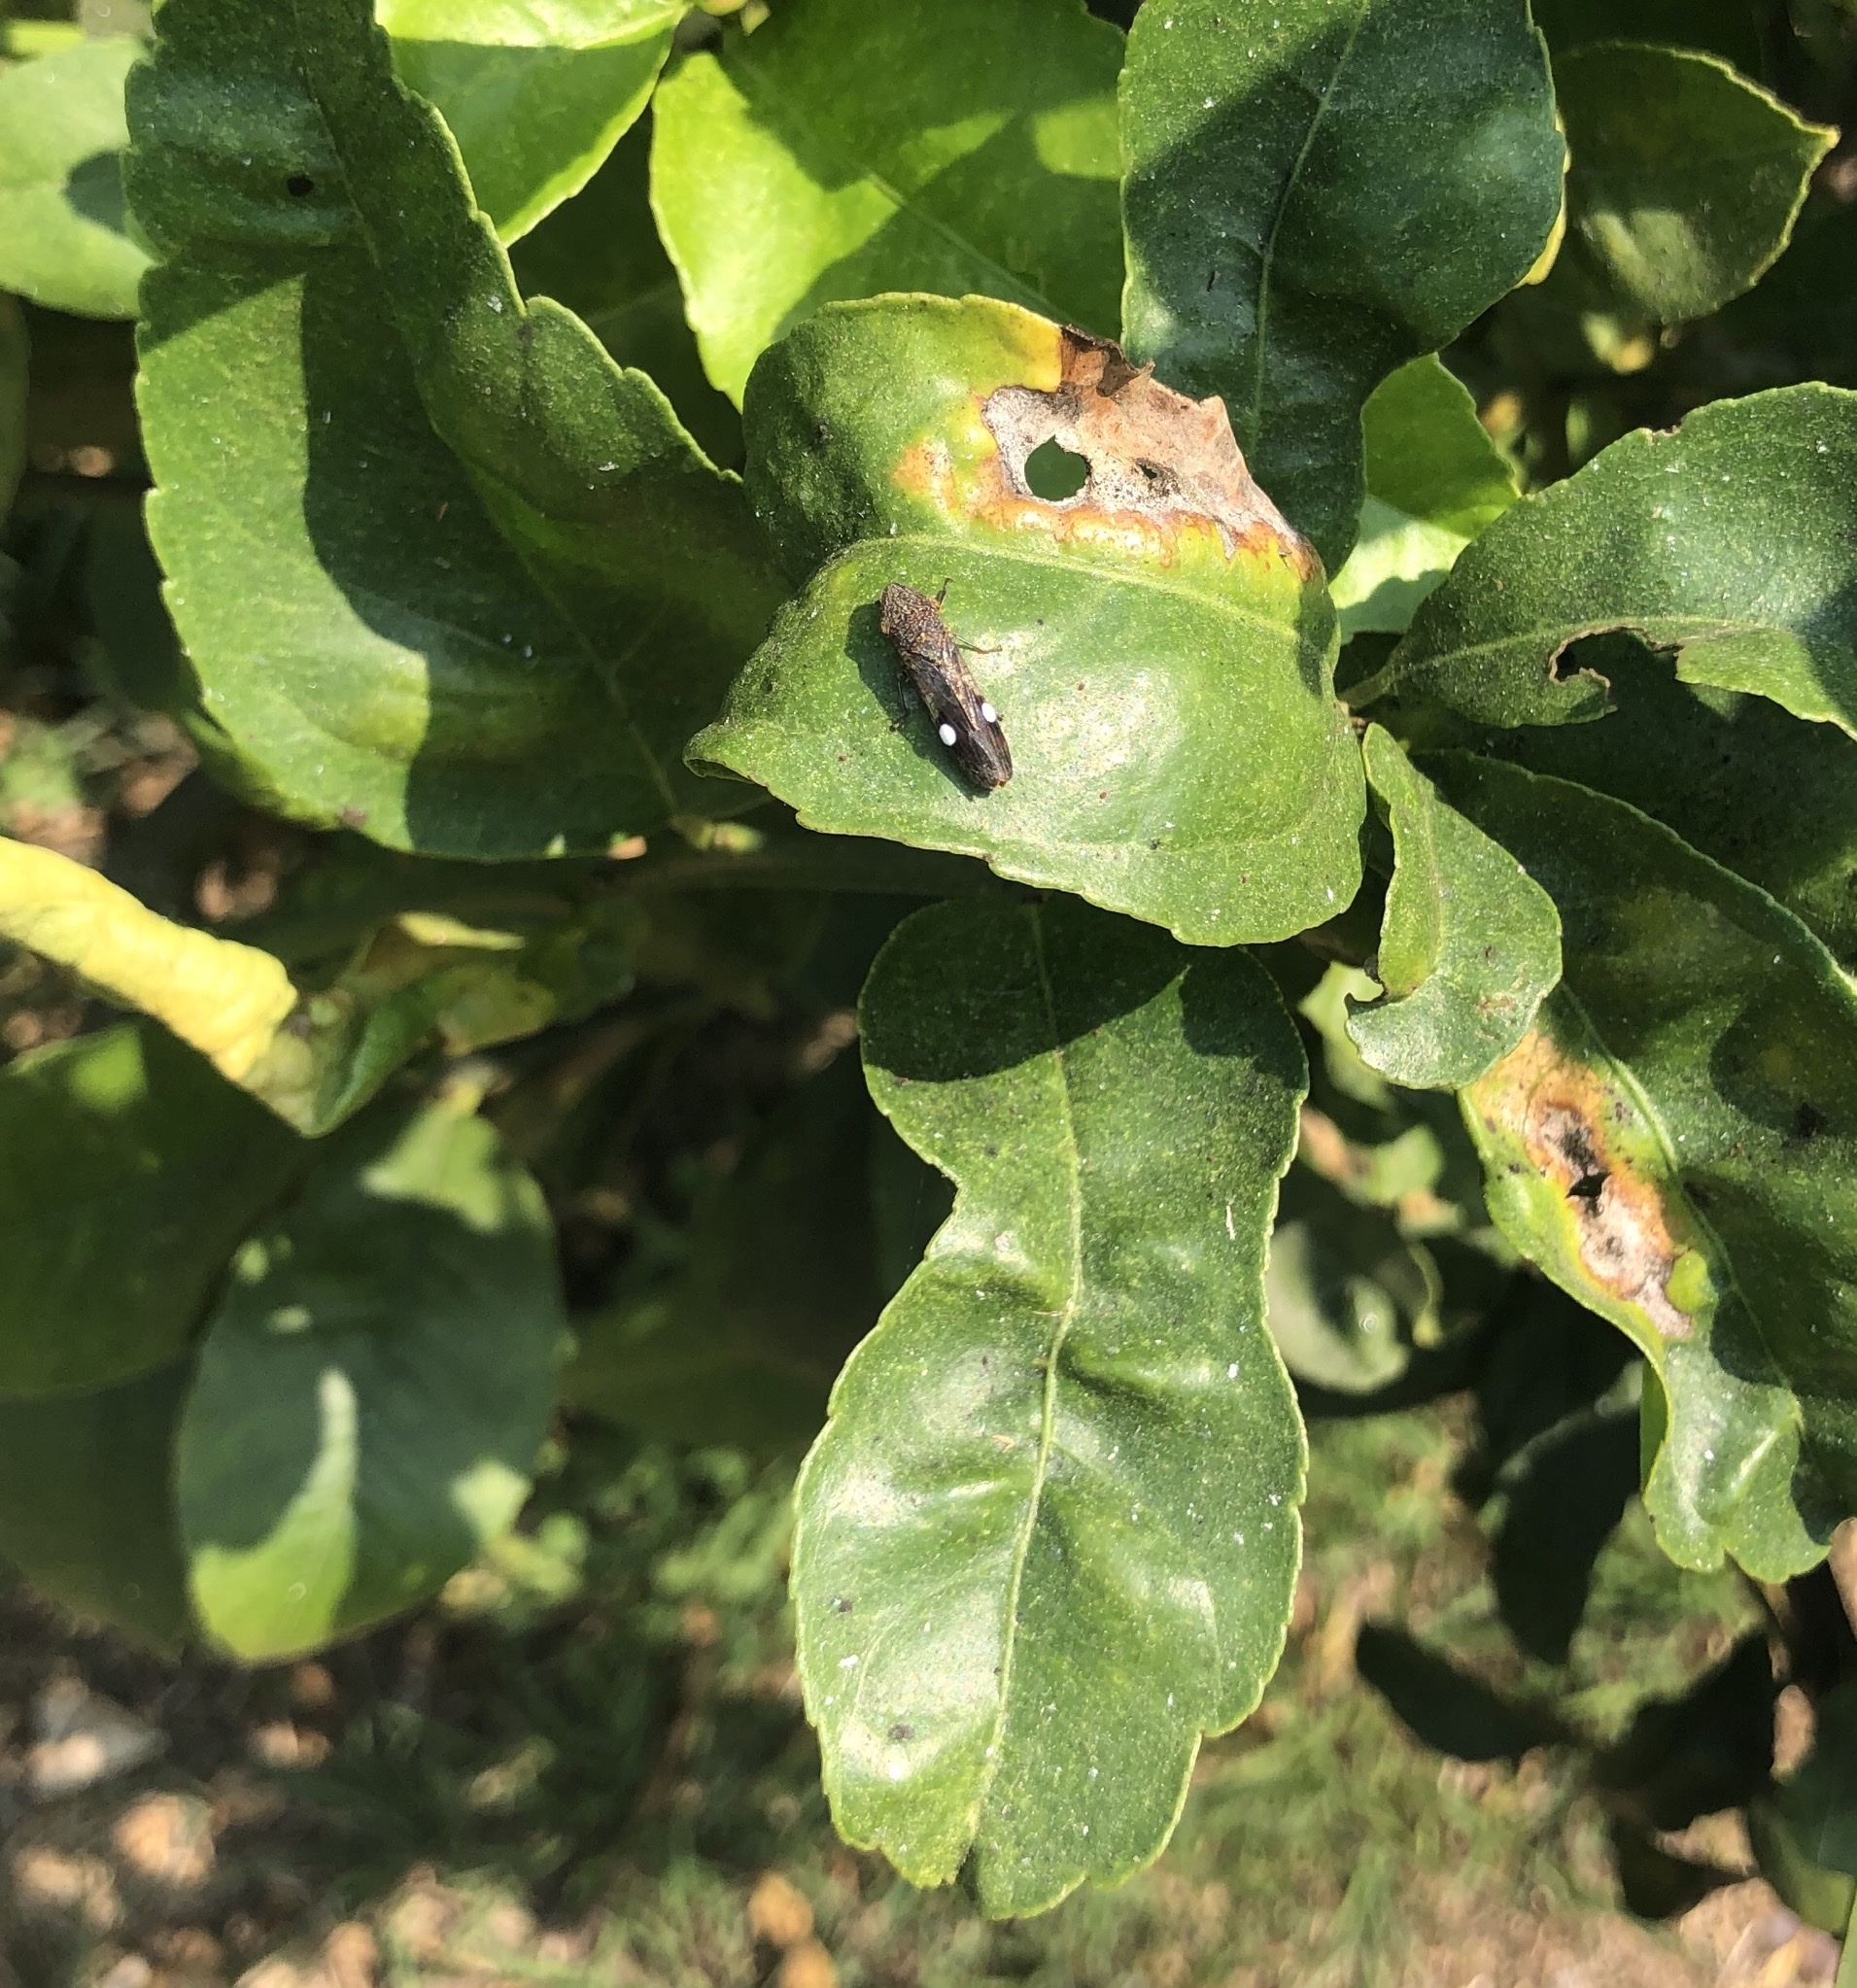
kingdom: Animalia
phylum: Arthropoda
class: Insecta
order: Hemiptera
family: Cicadellidae
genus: Homalodisca
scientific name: Homalodisca vitripennis
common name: Glassy-winged sharpshooter
